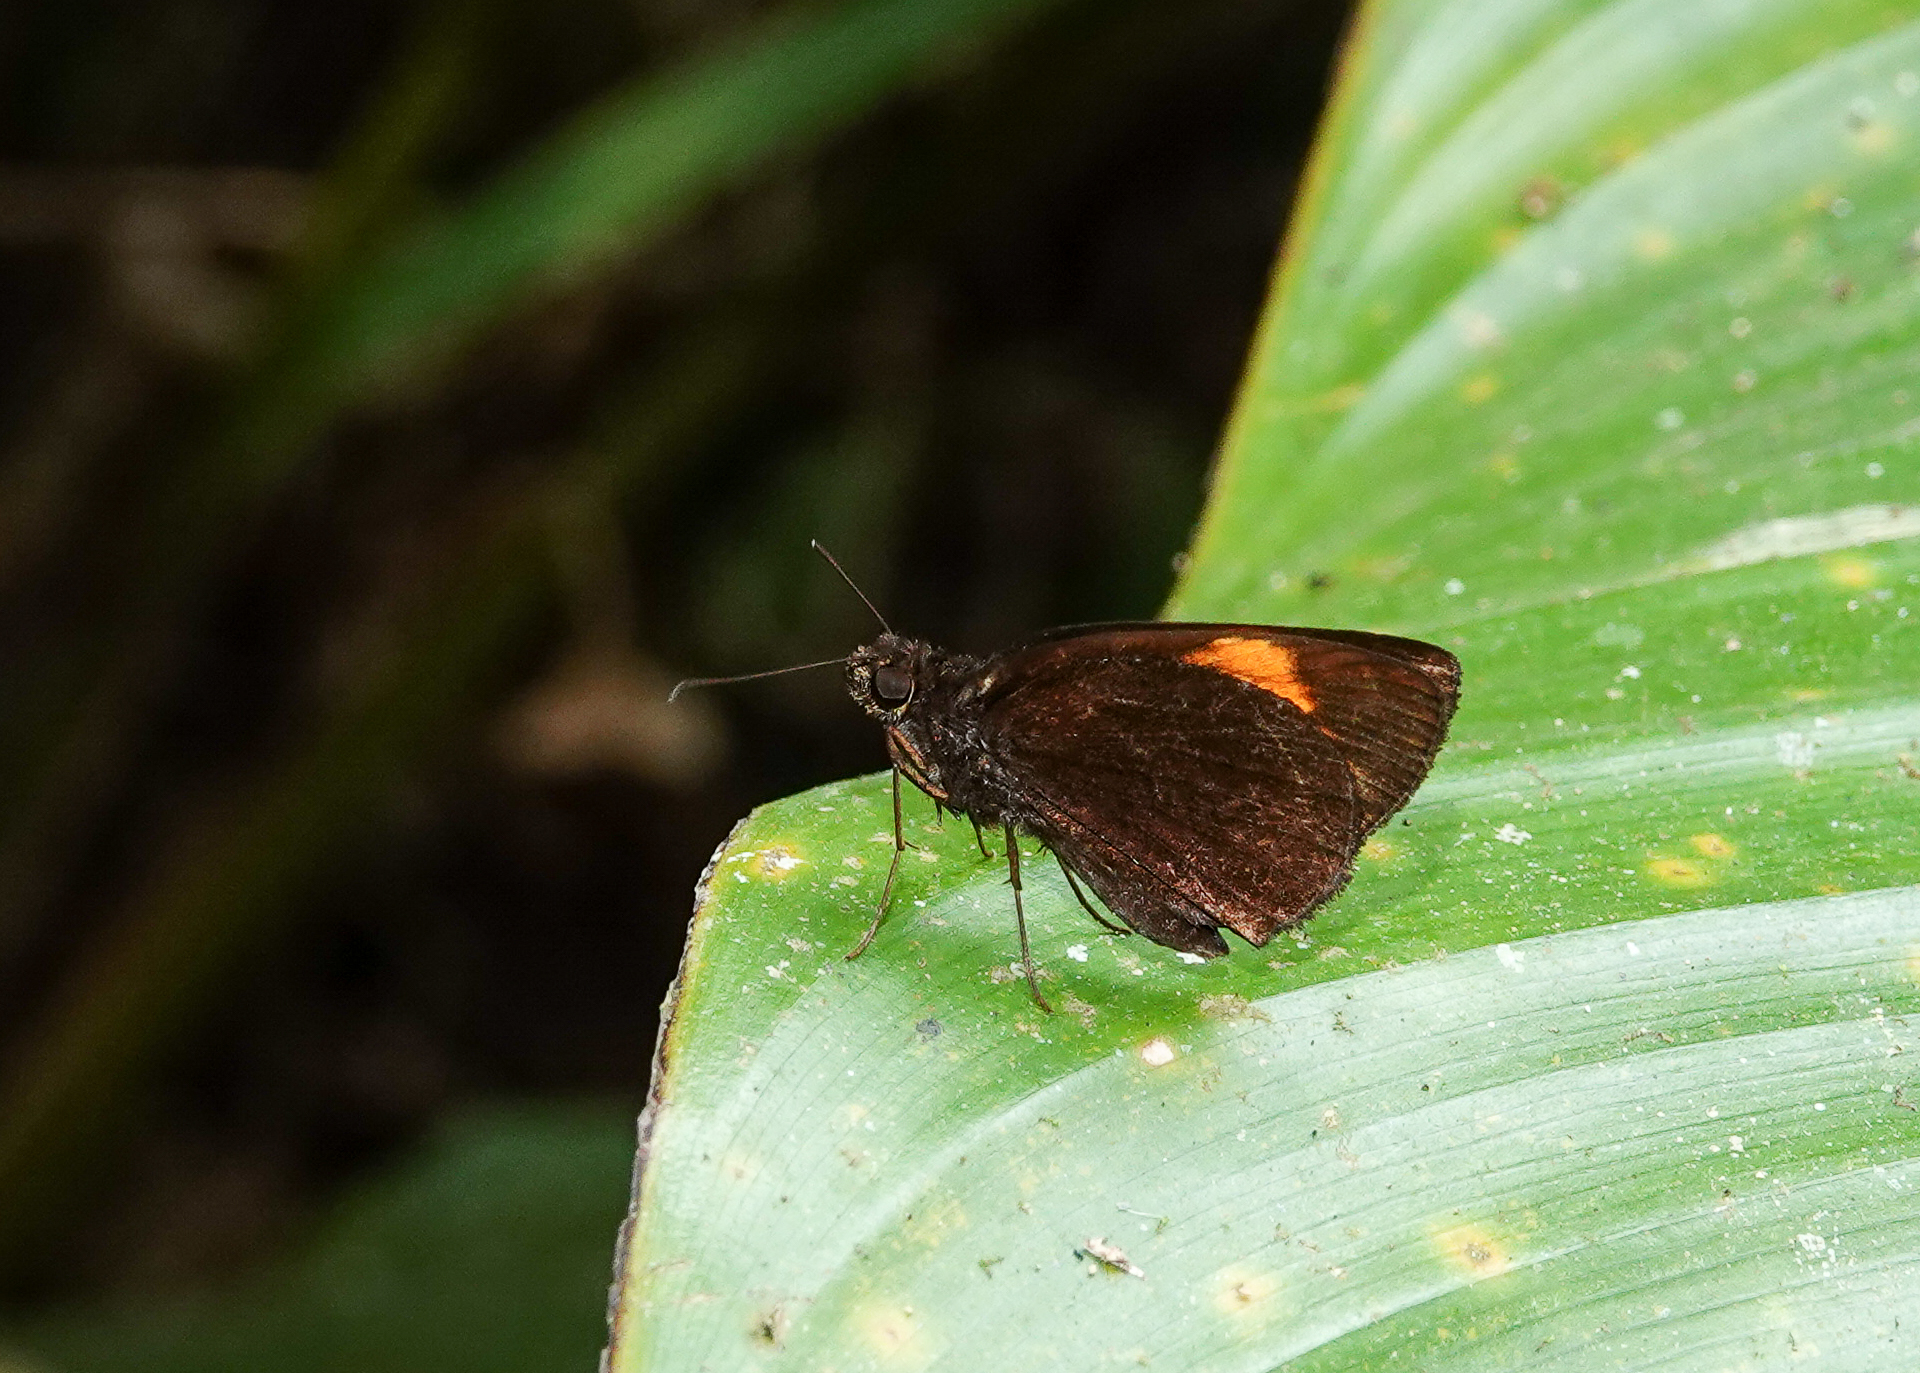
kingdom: Animalia
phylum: Arthropoda
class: Insecta
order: Lepidoptera
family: Hesperiidae
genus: Koruthaialos
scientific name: Koruthaialos sindu
